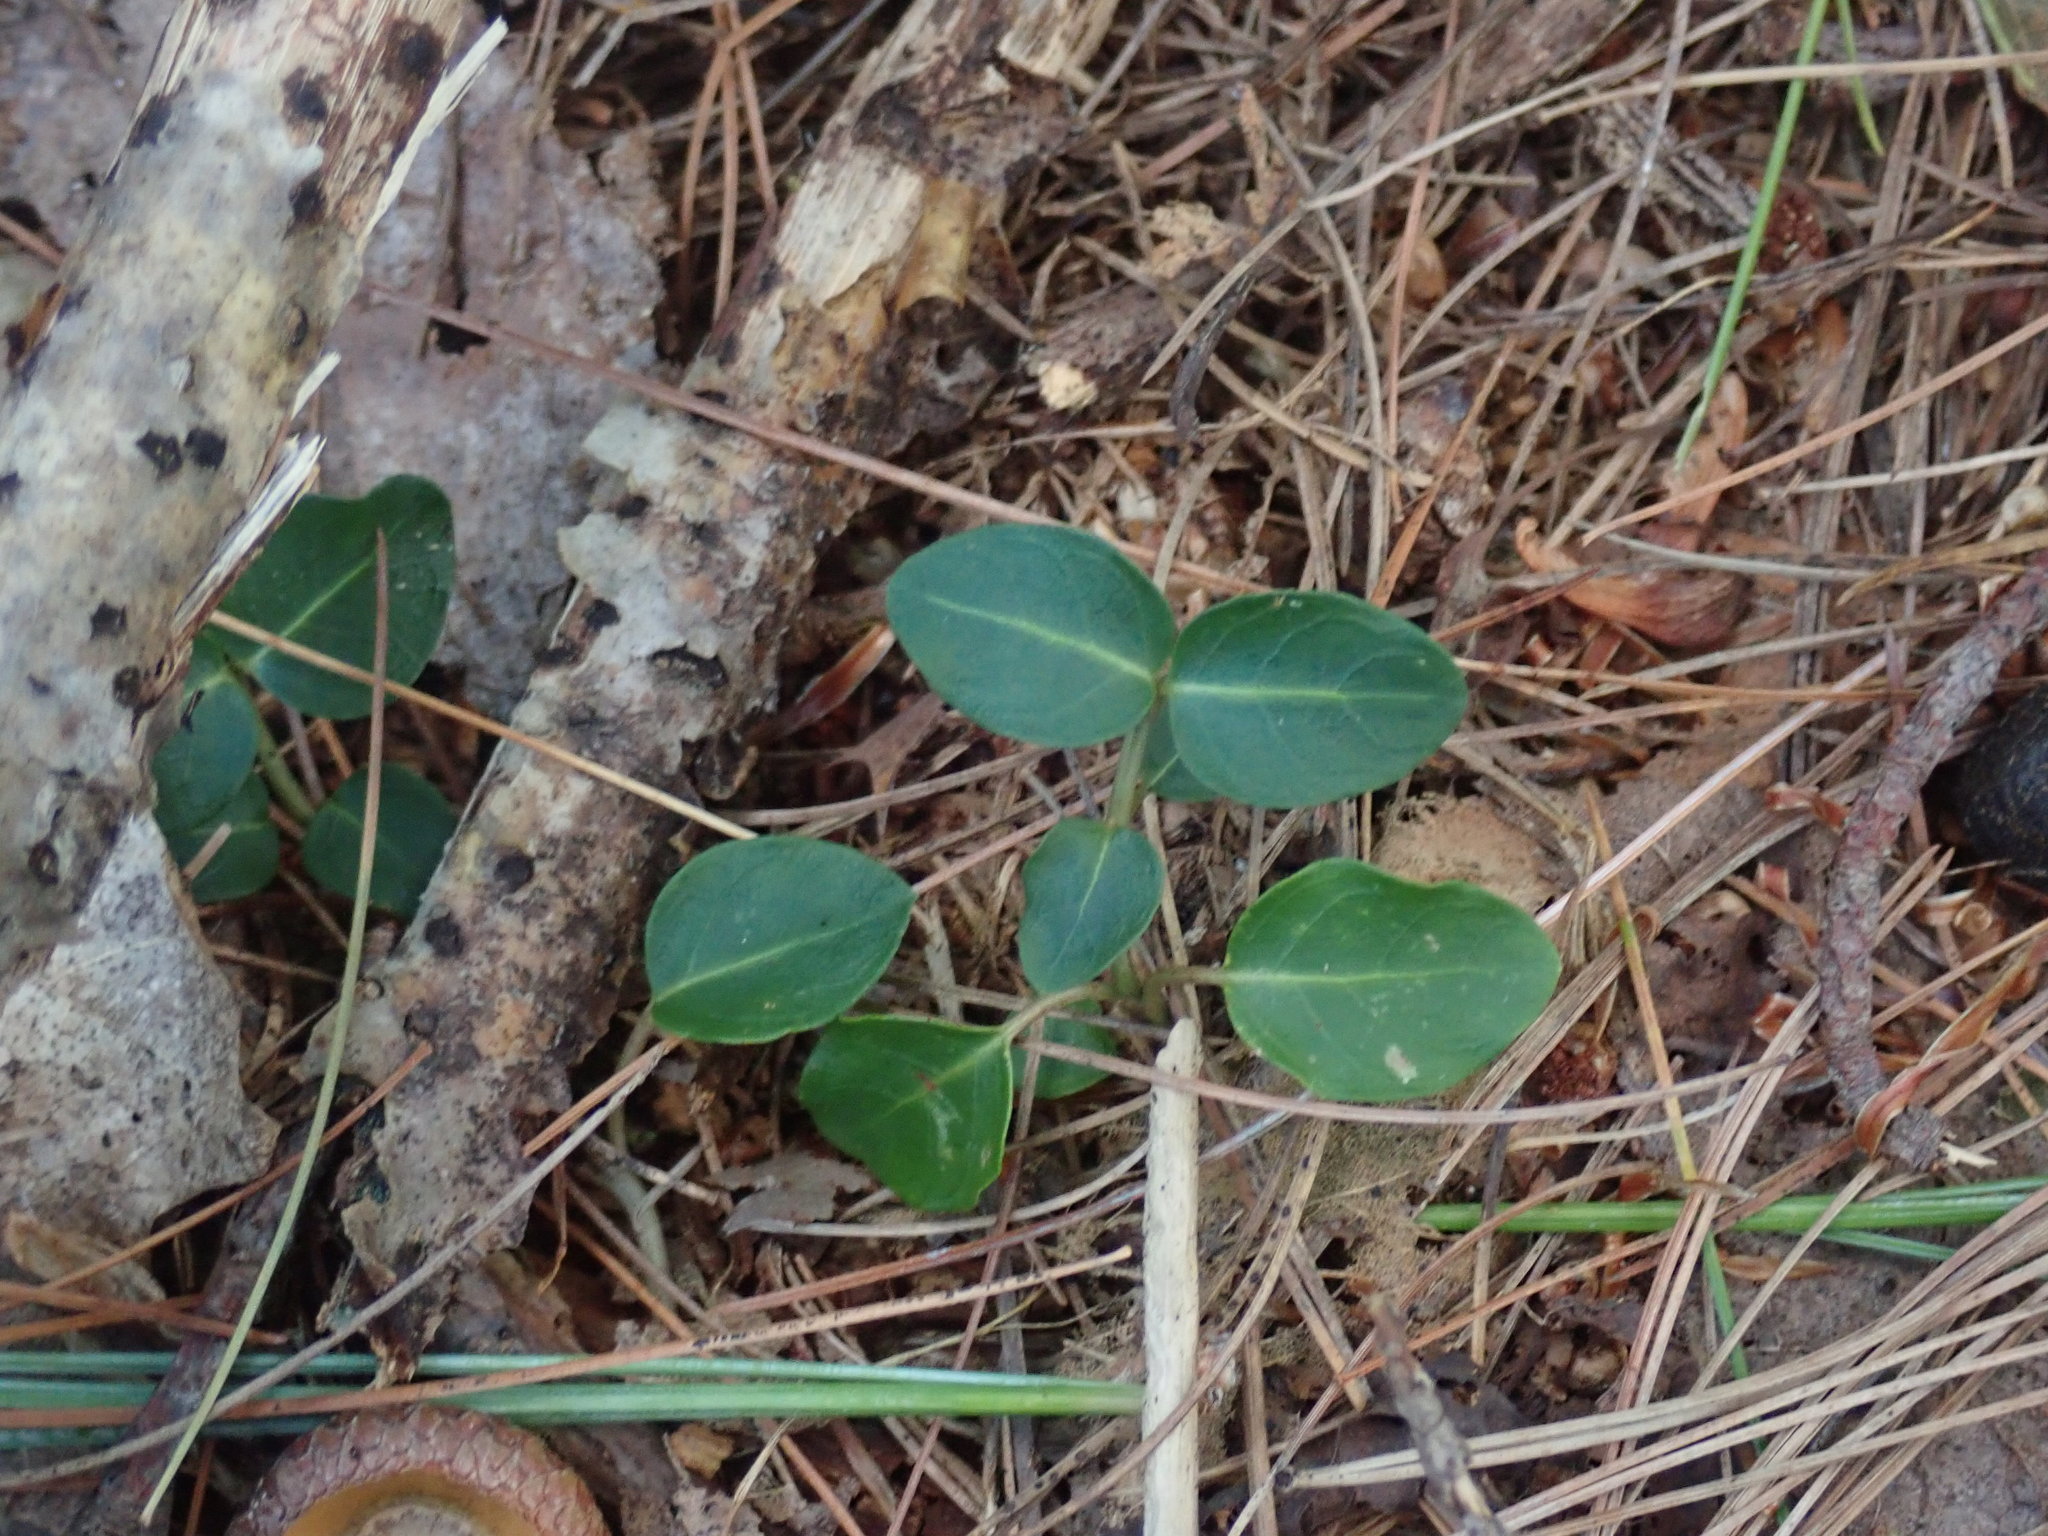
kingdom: Plantae
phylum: Tracheophyta
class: Magnoliopsida
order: Gentianales
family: Rubiaceae
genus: Mitchella
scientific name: Mitchella repens
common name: Partridge-berry
